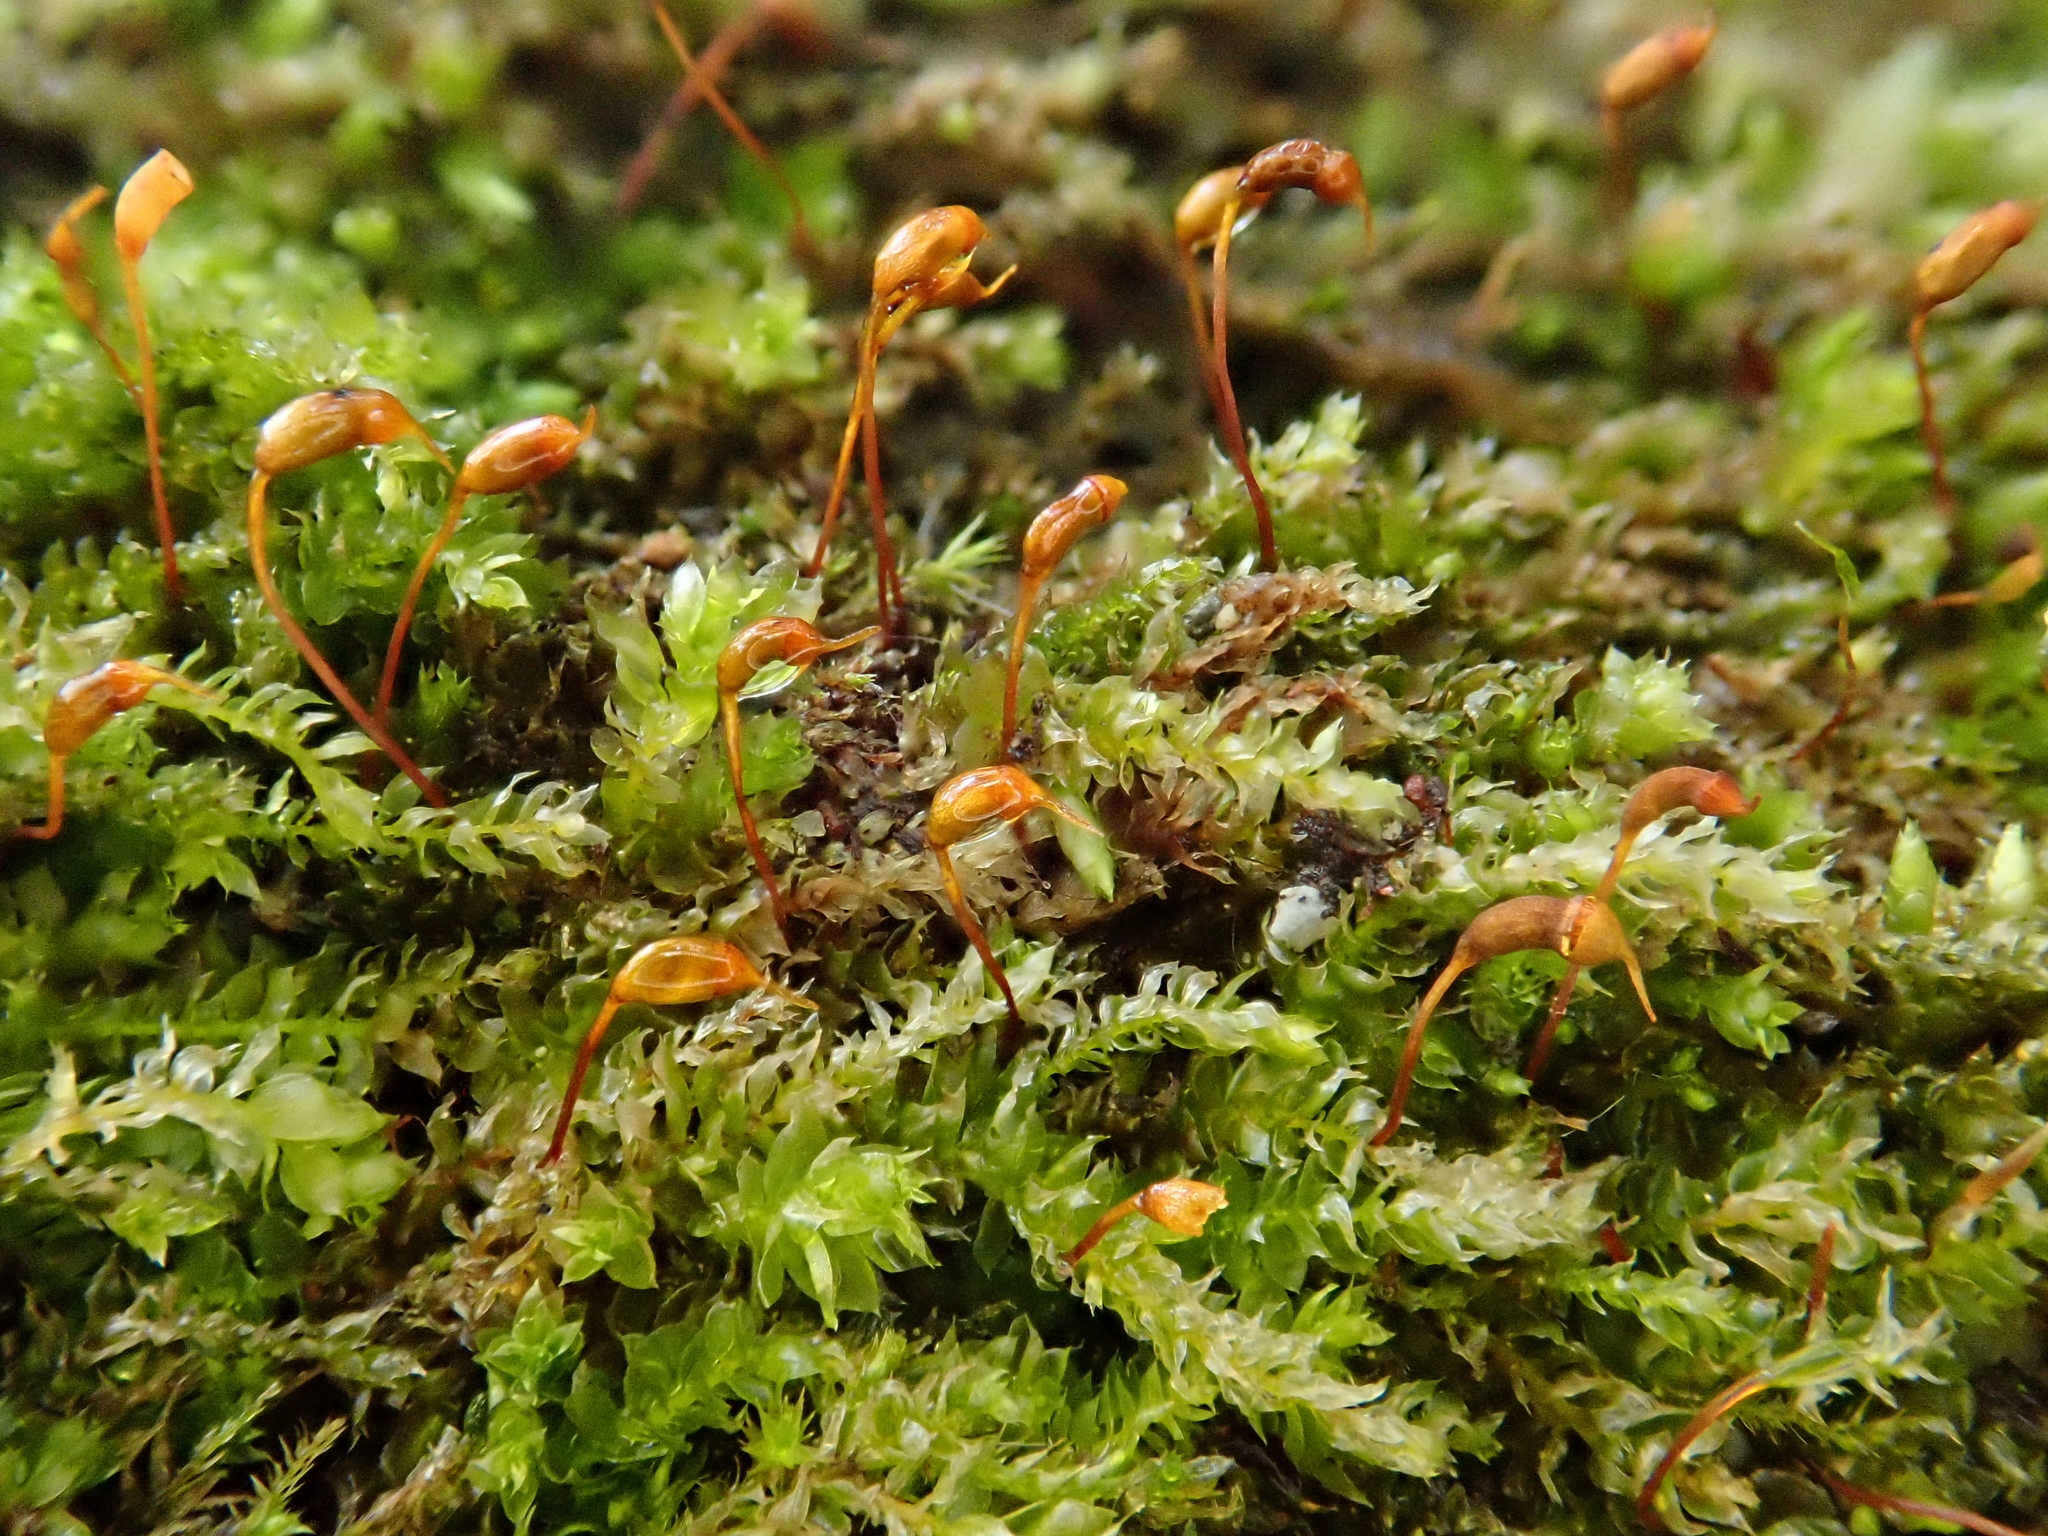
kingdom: Plantae
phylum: Bryophyta
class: Bryopsida
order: Hypnales
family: Brachytheciaceae
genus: Rhynchostegium
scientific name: Rhynchostegium rotundifolium
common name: Round-leaved feather-moss
